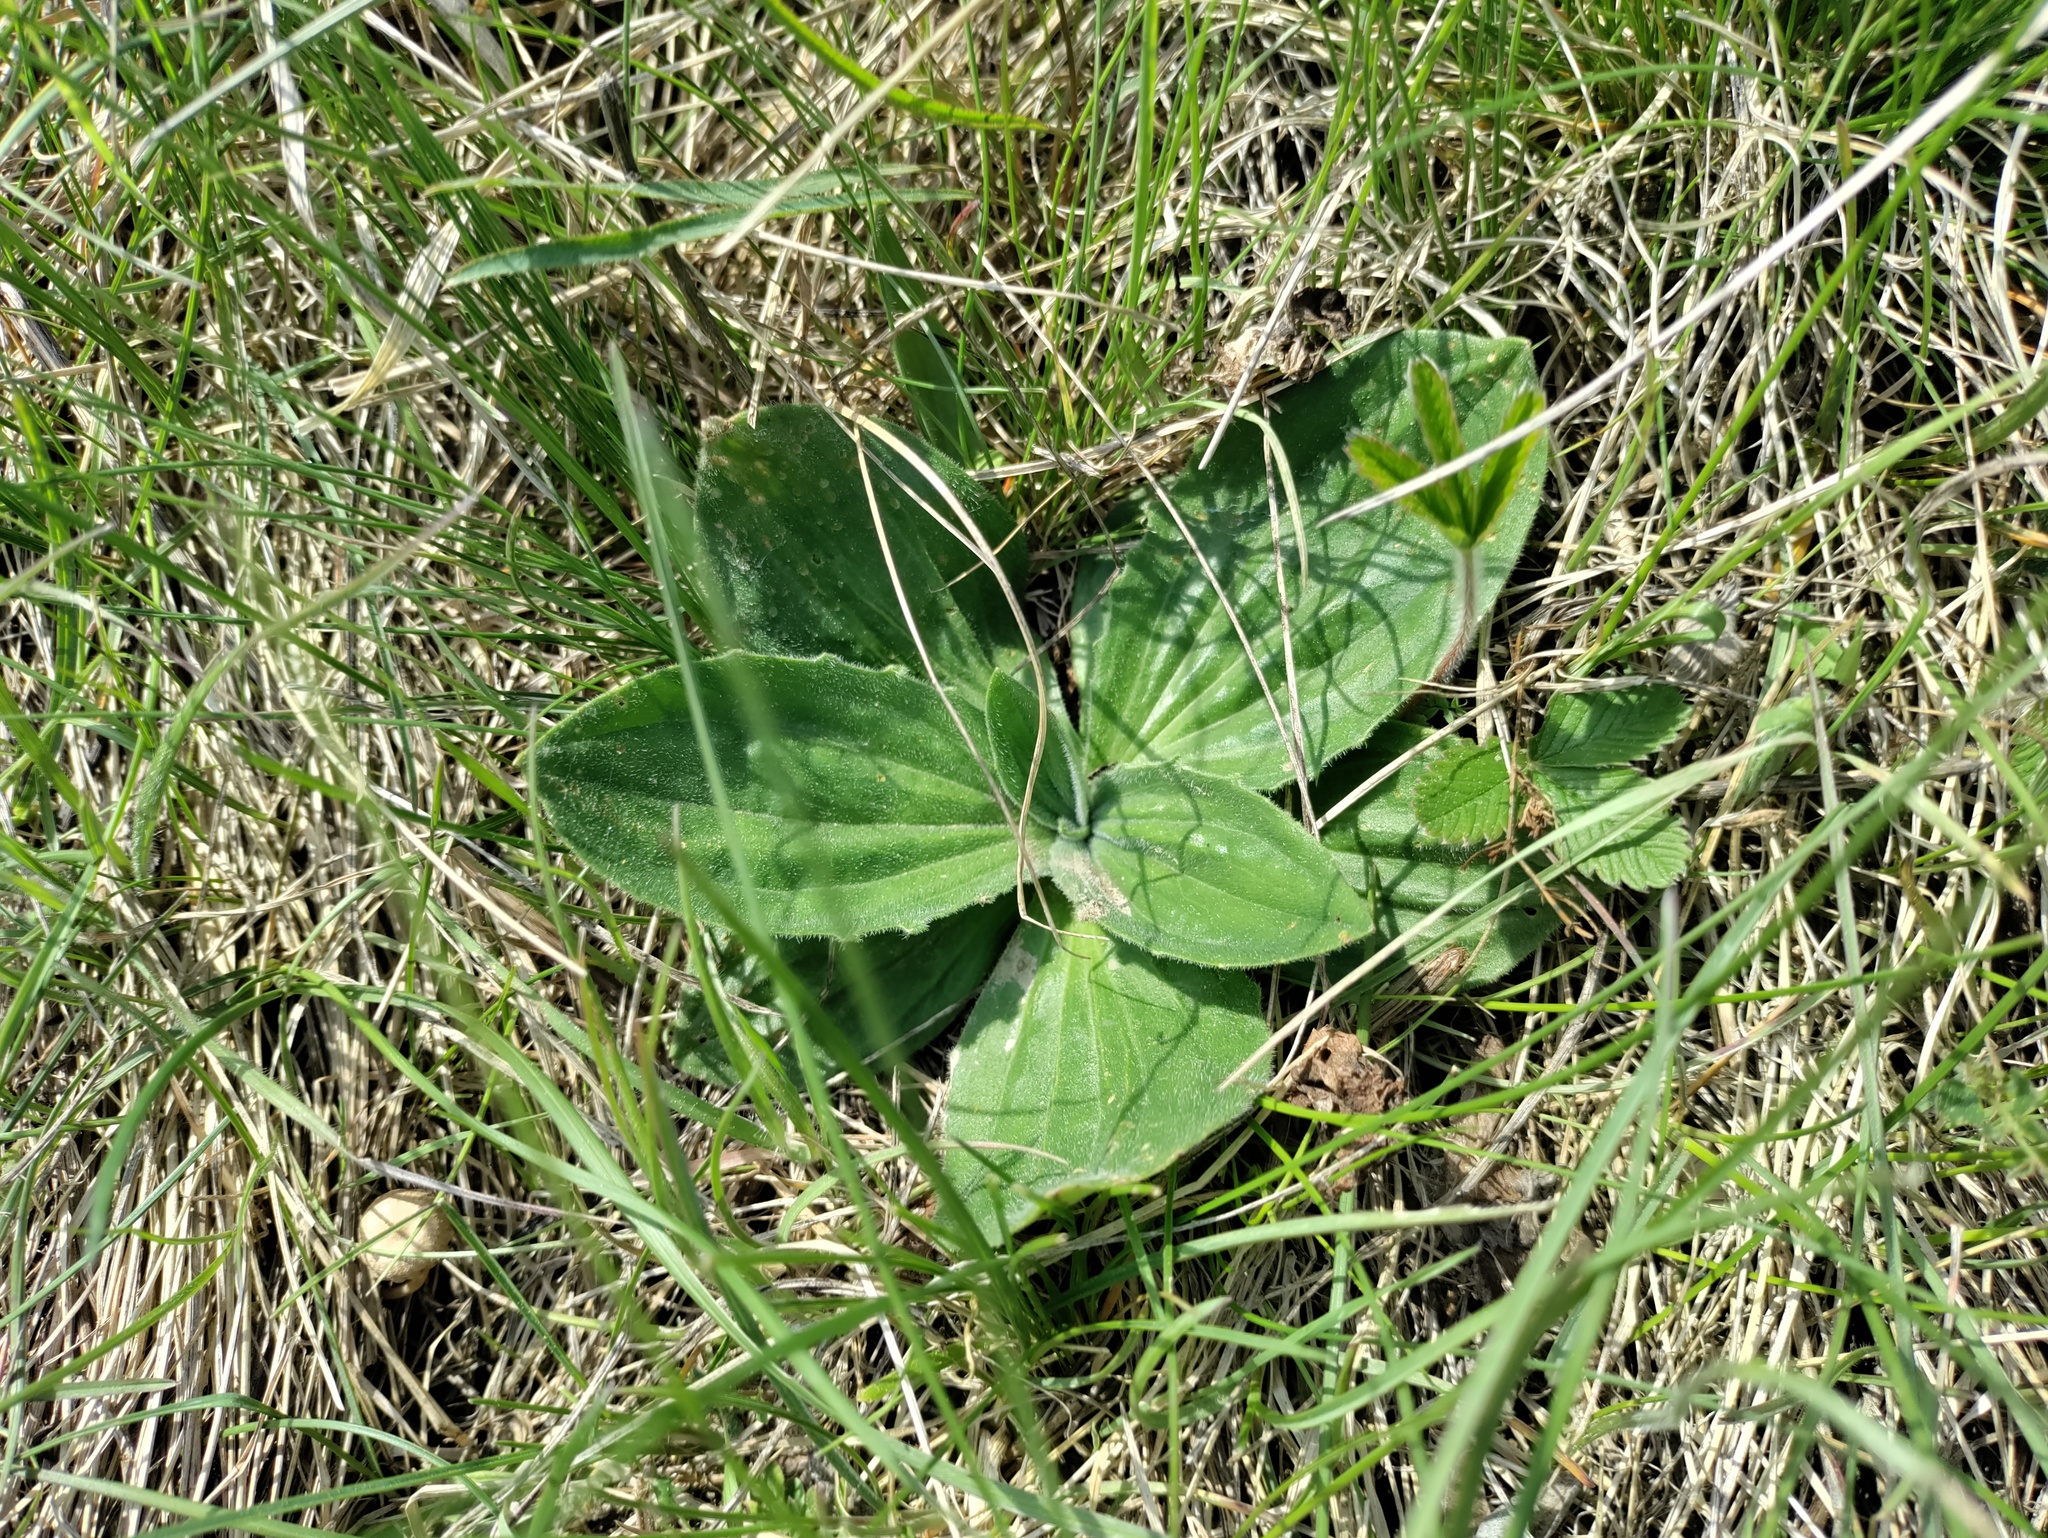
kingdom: Plantae
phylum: Tracheophyta
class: Magnoliopsida
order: Lamiales
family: Plantaginaceae
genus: Plantago
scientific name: Plantago media
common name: Hoary plantain
